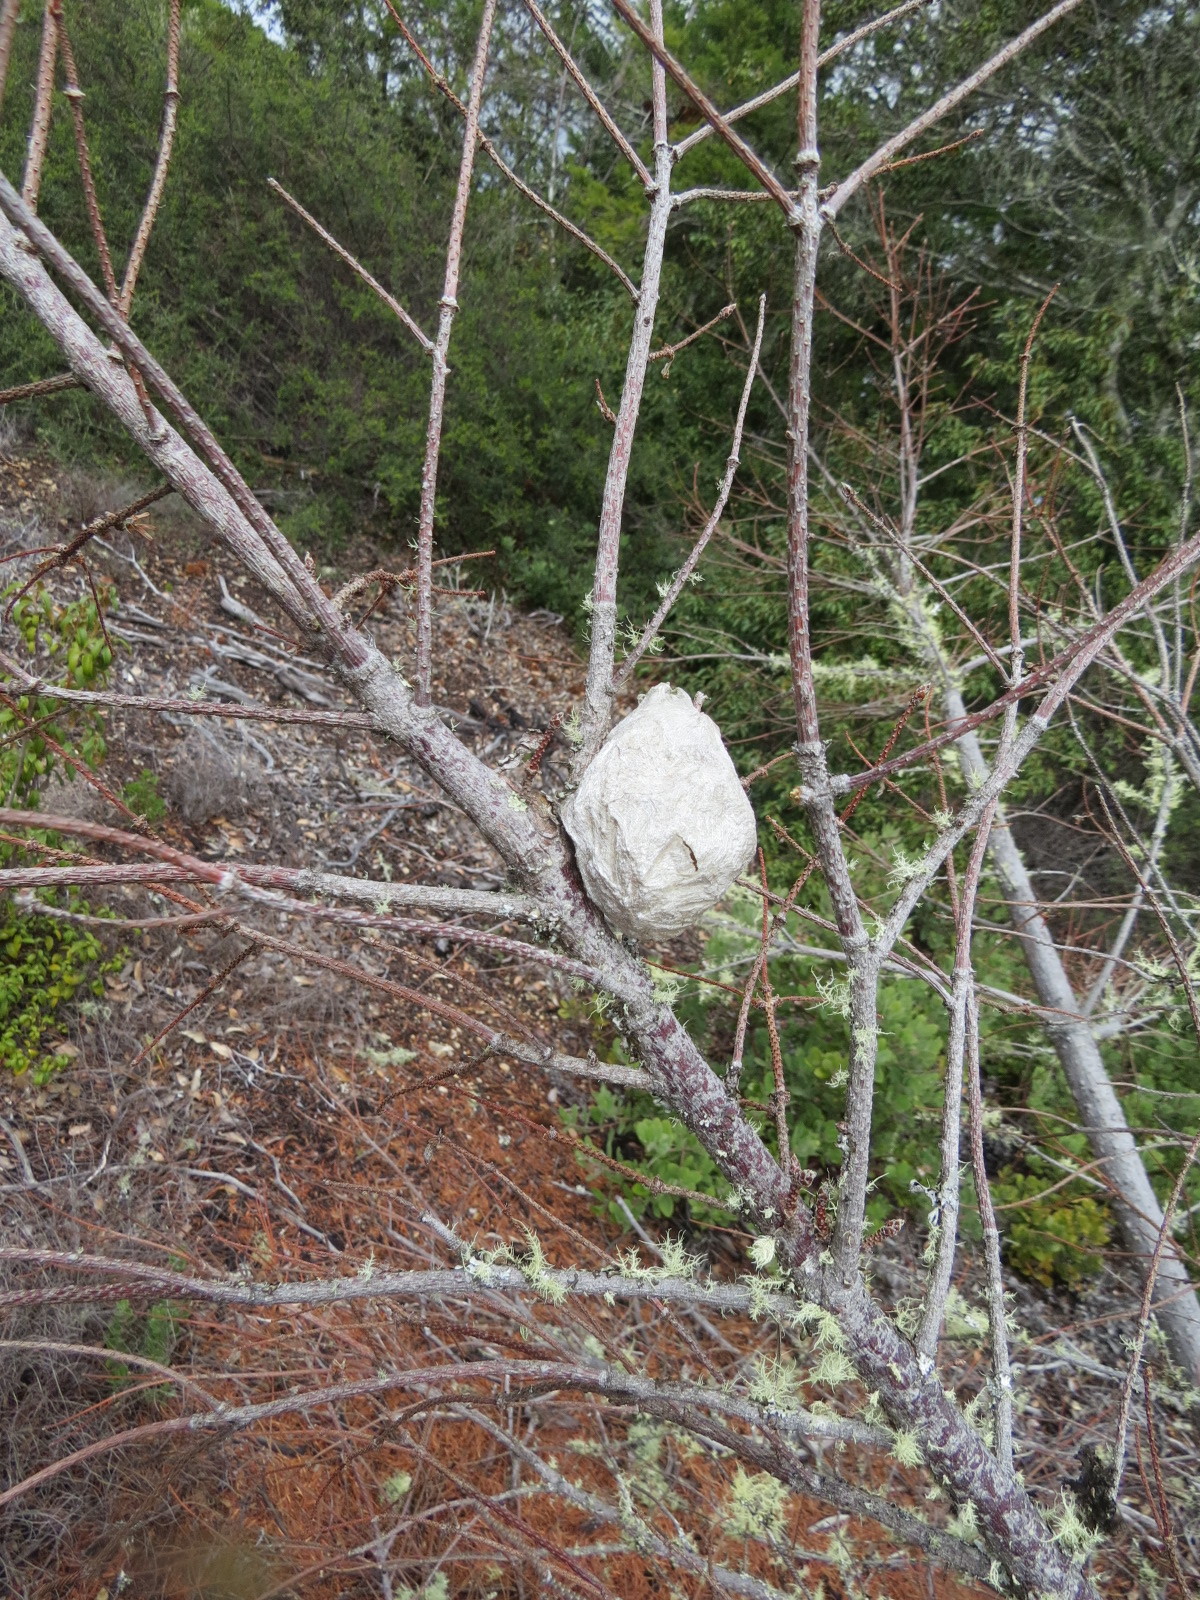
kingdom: Animalia
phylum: Arthropoda
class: Insecta
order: Lepidoptera
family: Saturniidae
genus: Hyalophora
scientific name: Hyalophora euryalus
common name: Ceanothus silkmoth
